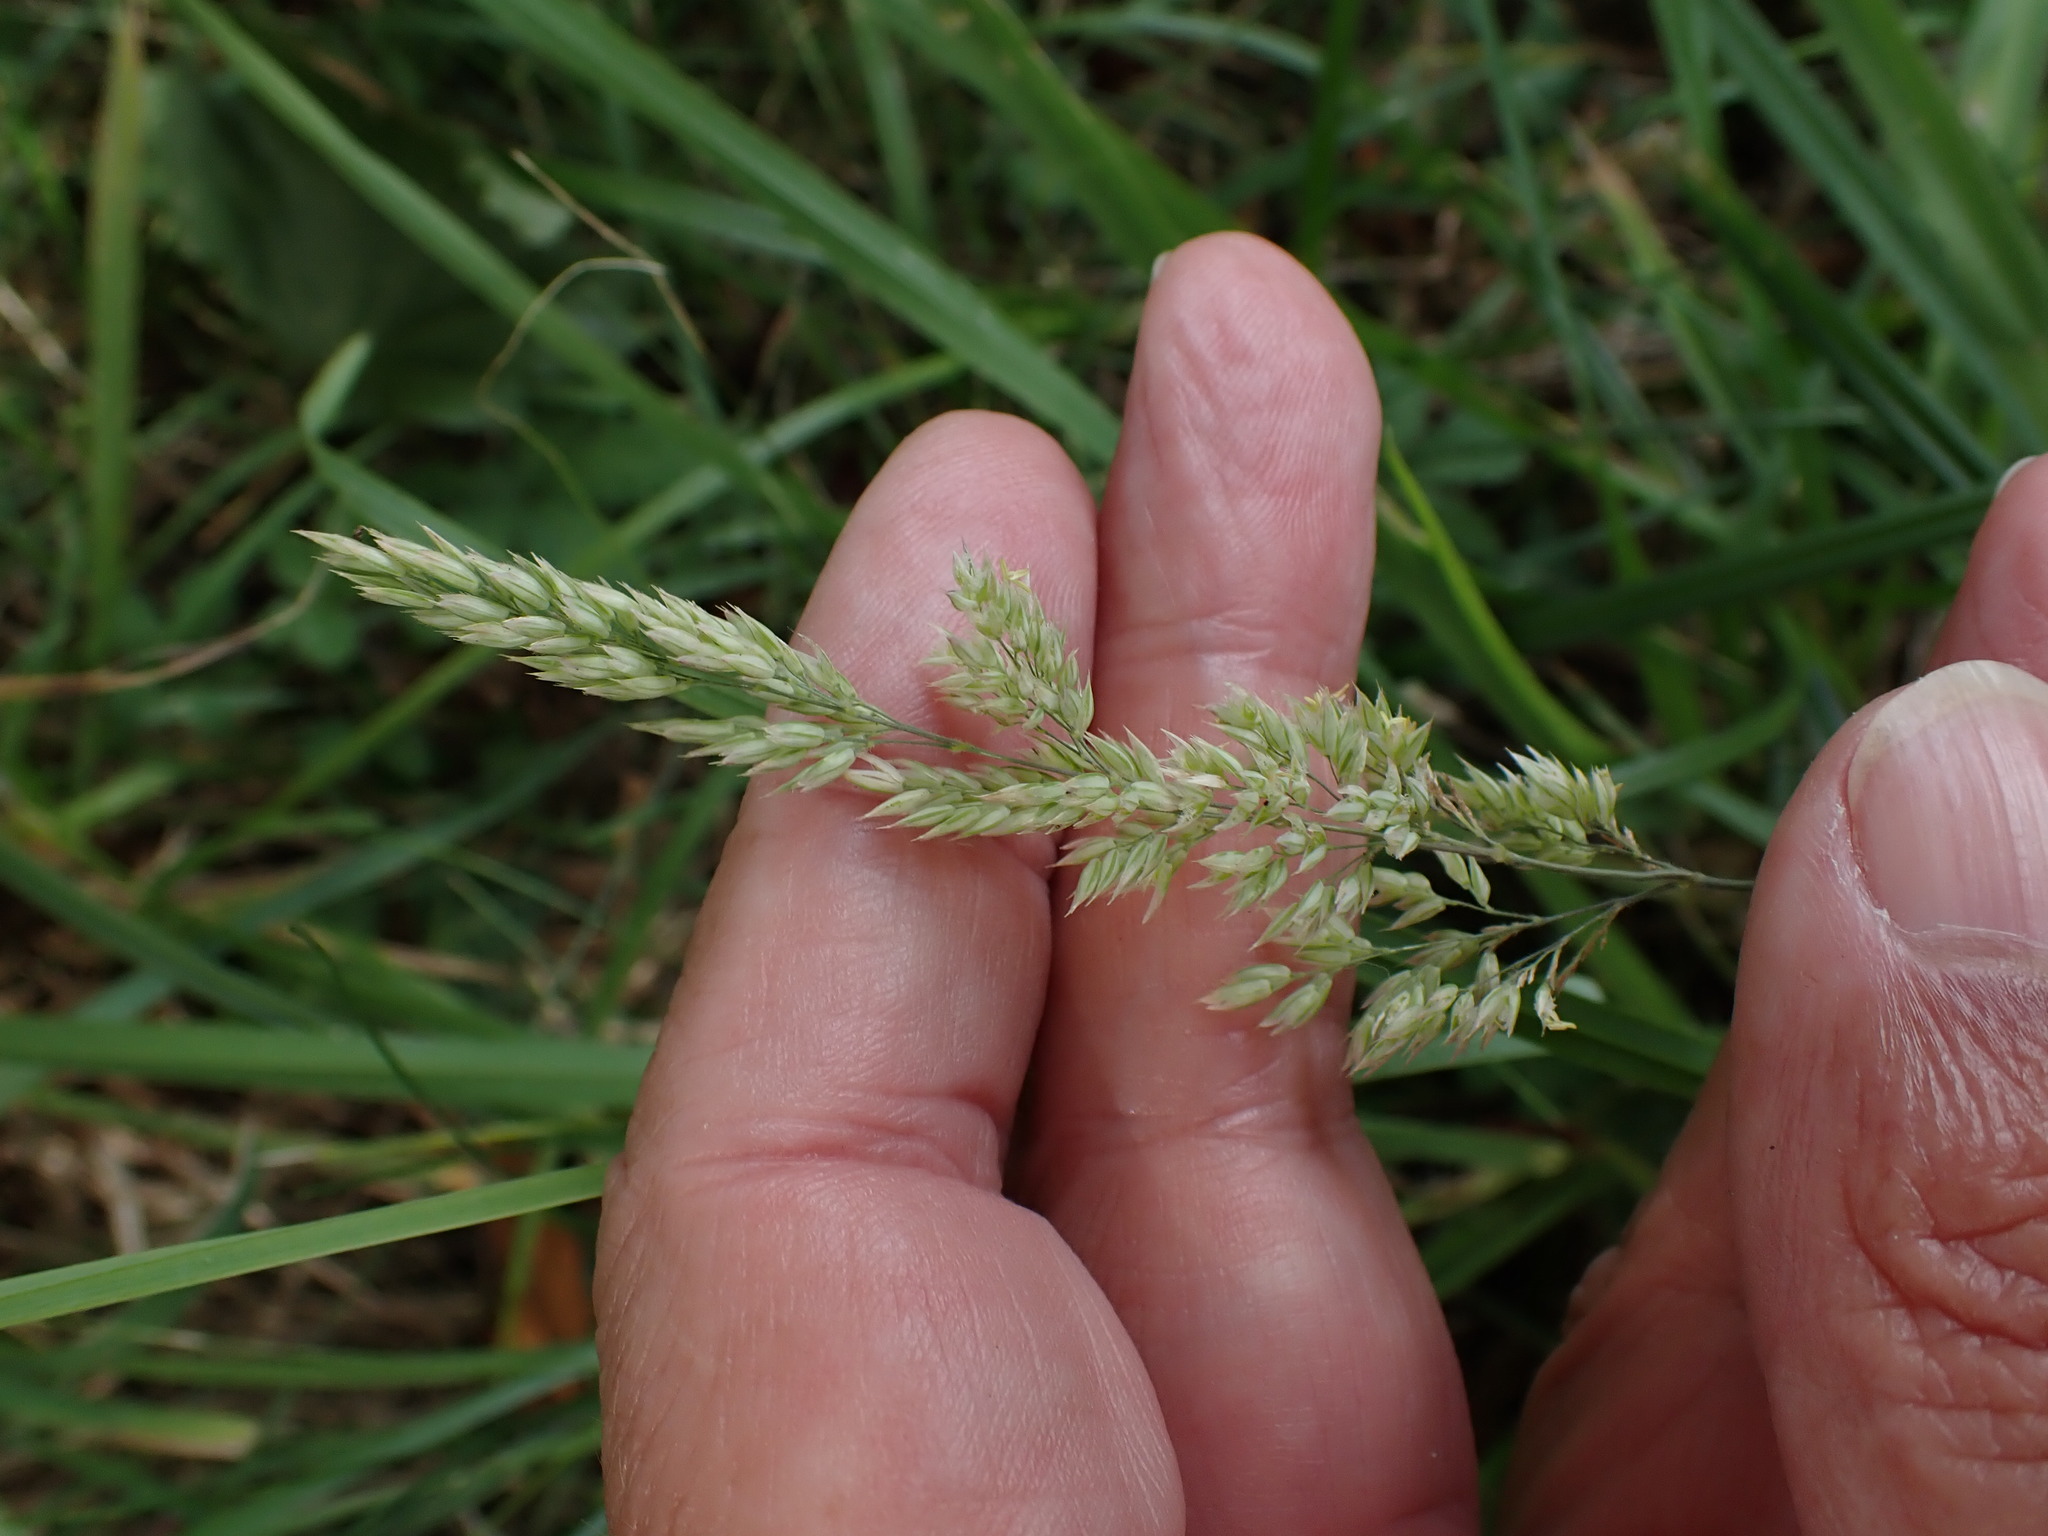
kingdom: Plantae
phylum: Tracheophyta
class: Liliopsida
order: Poales
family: Poaceae
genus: Holcus
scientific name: Holcus lanatus
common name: Yorkshire-fog
